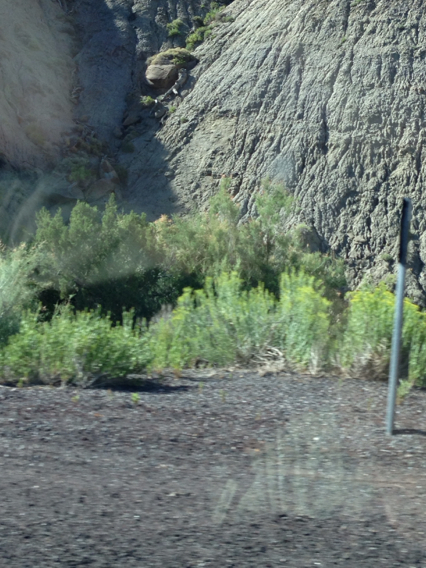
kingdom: Plantae
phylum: Tracheophyta
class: Magnoliopsida
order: Caryophyllales
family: Tamaricaceae
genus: Tamarix
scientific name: Tamarix ramosissima
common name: Pink tamarisk
